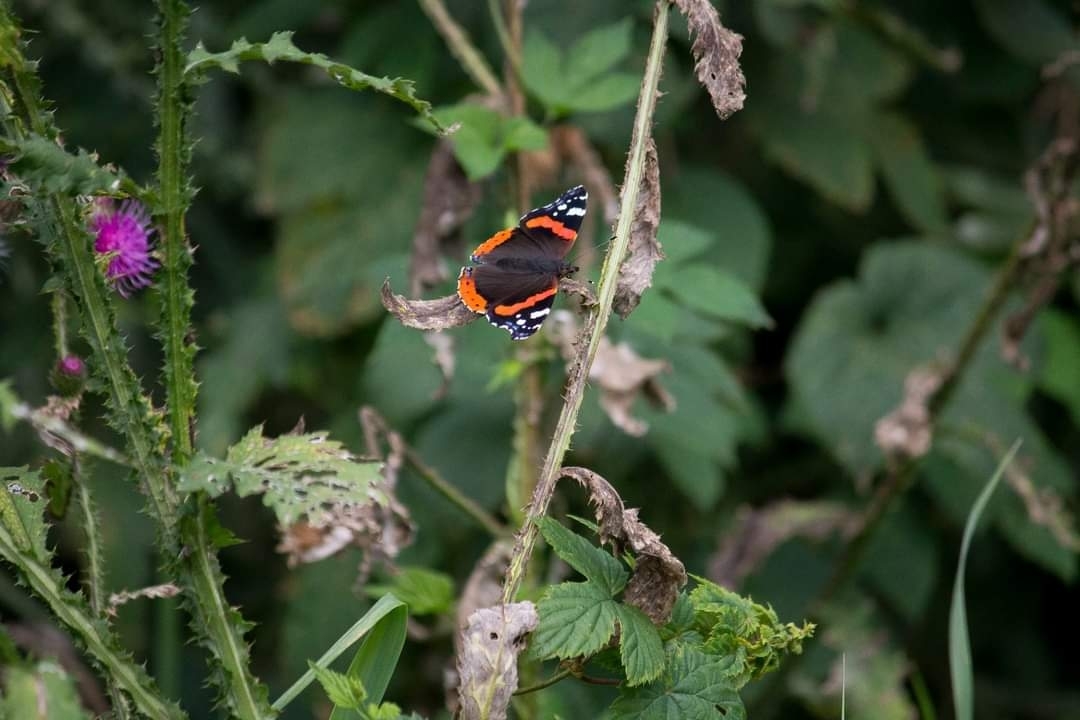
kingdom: Animalia
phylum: Arthropoda
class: Insecta
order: Lepidoptera
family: Nymphalidae
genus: Vanessa
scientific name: Vanessa atalanta
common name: Red admiral
